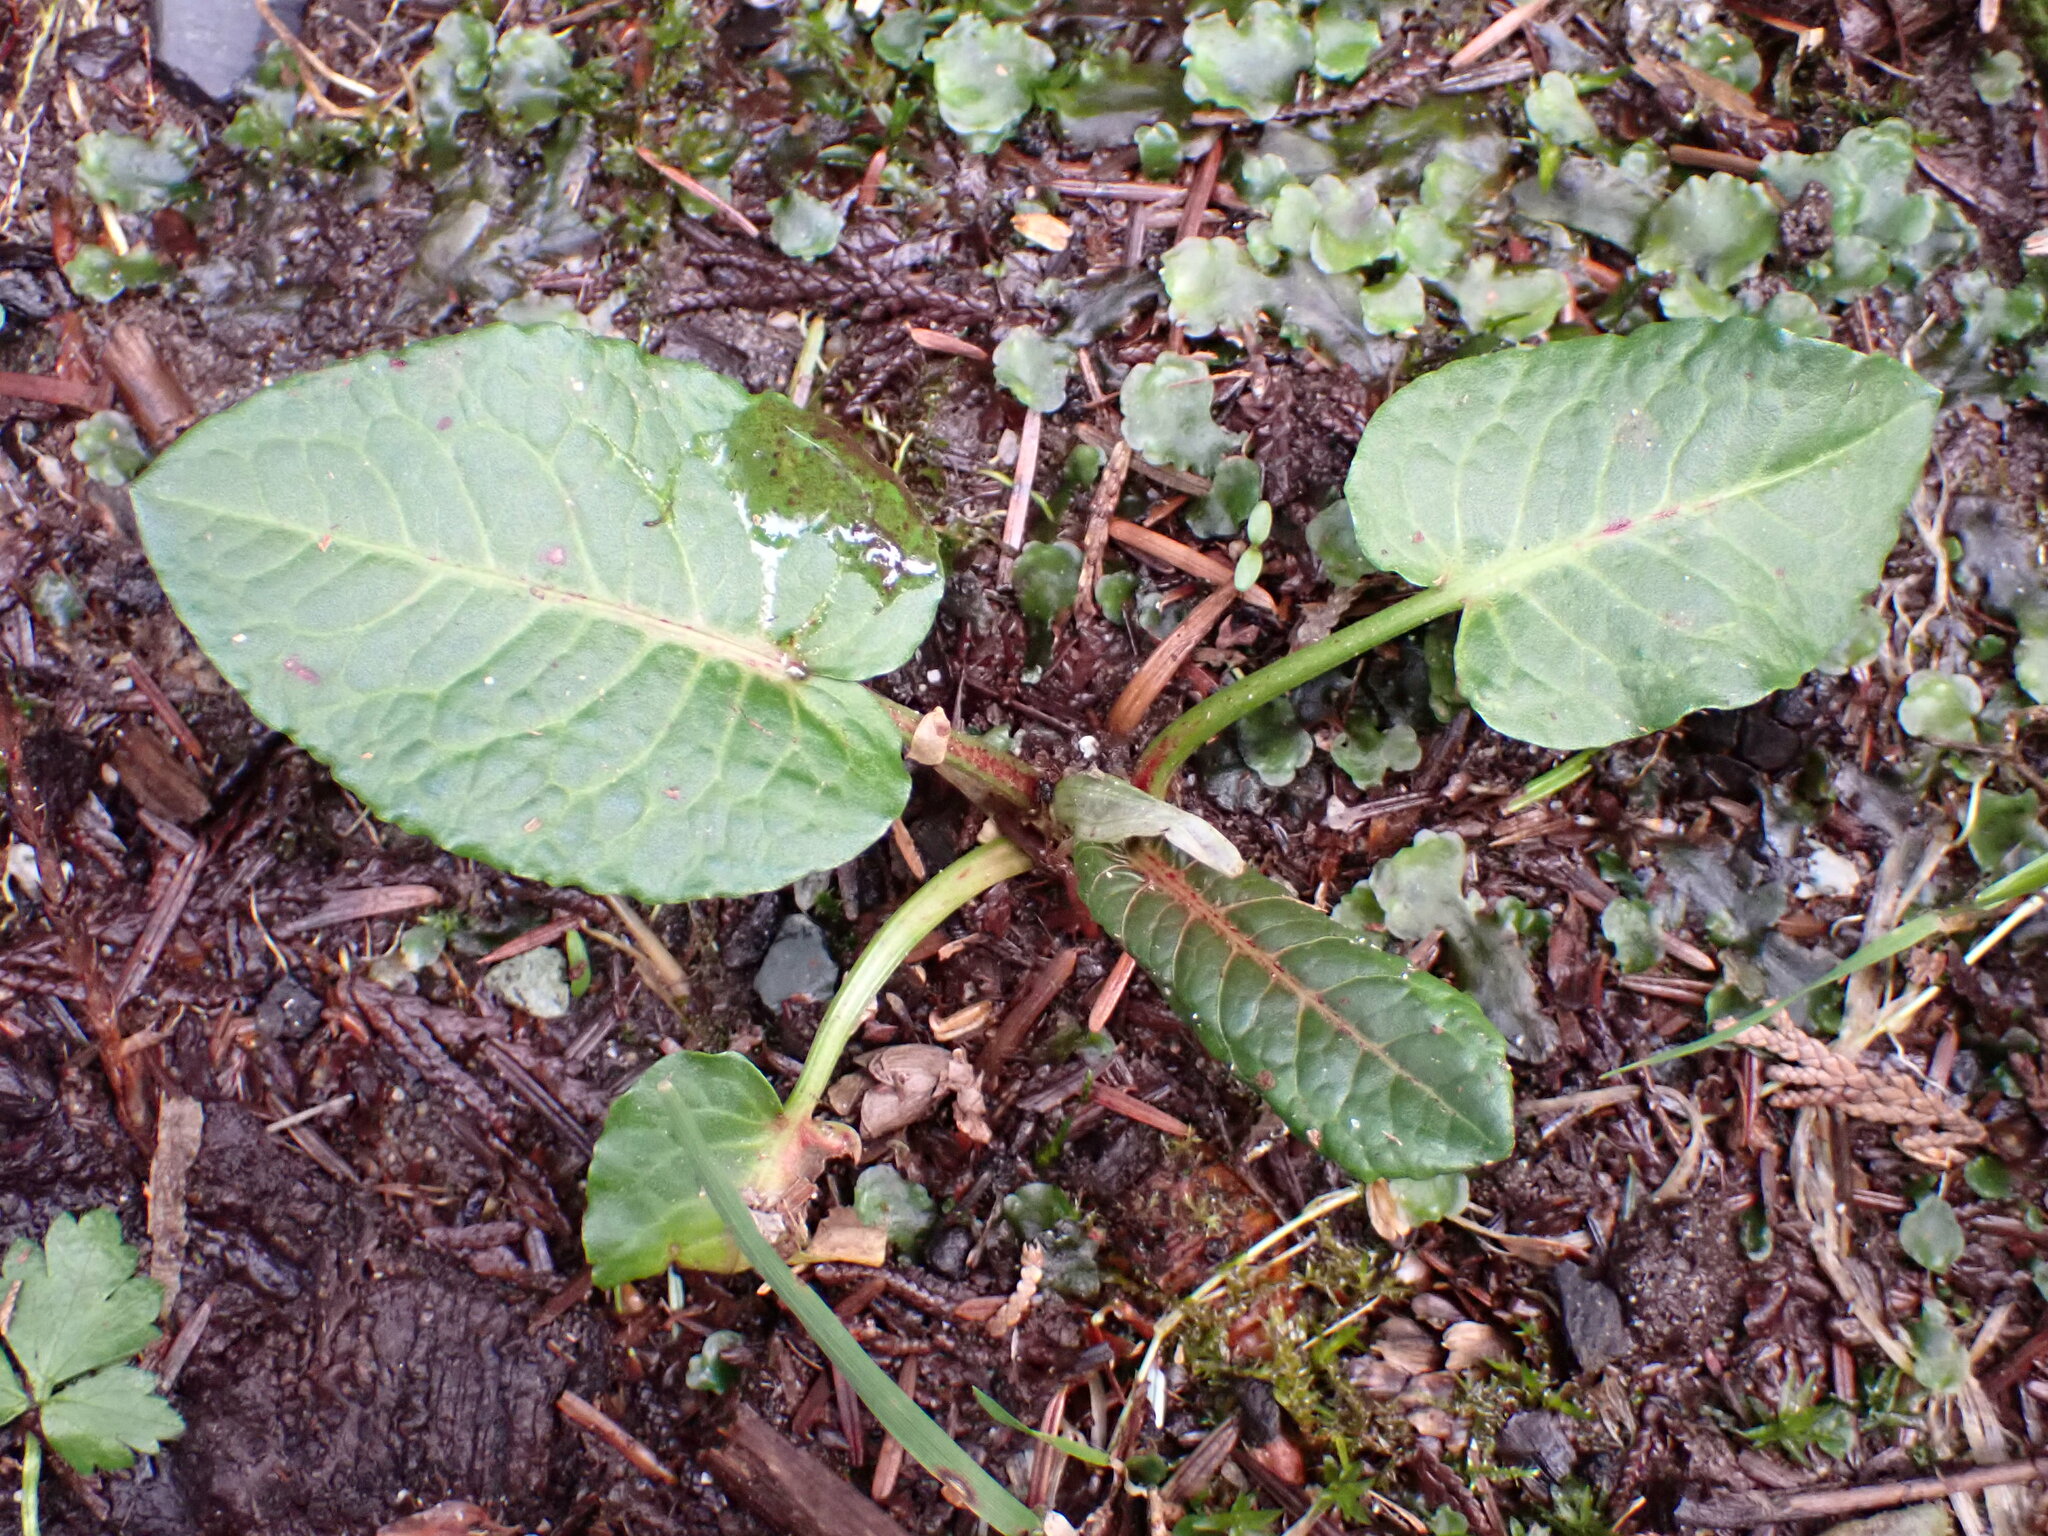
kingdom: Plantae
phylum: Tracheophyta
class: Magnoliopsida
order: Caryophyllales
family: Polygonaceae
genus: Rumex
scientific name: Rumex obtusifolius
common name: Bitter dock
